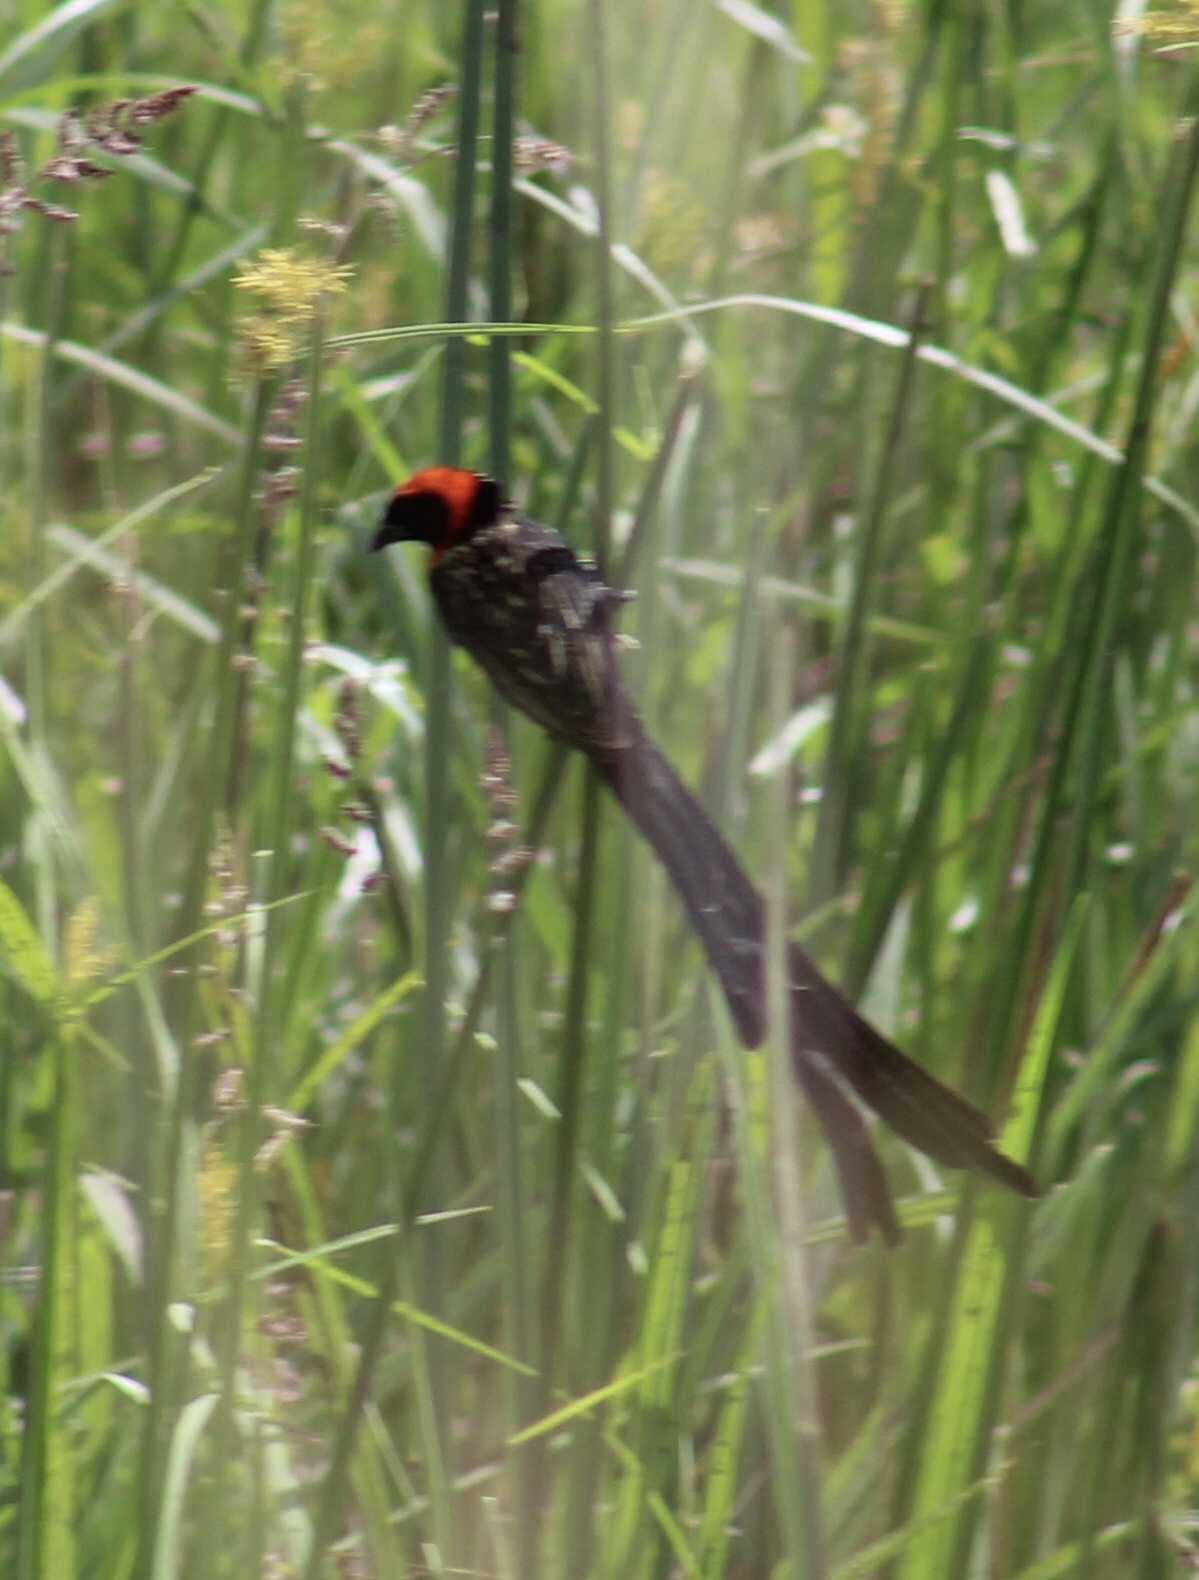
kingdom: Animalia
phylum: Chordata
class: Aves
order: Passeriformes
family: Ploceidae
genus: Euplectes
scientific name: Euplectes ardens
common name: Red-collared widowbird
